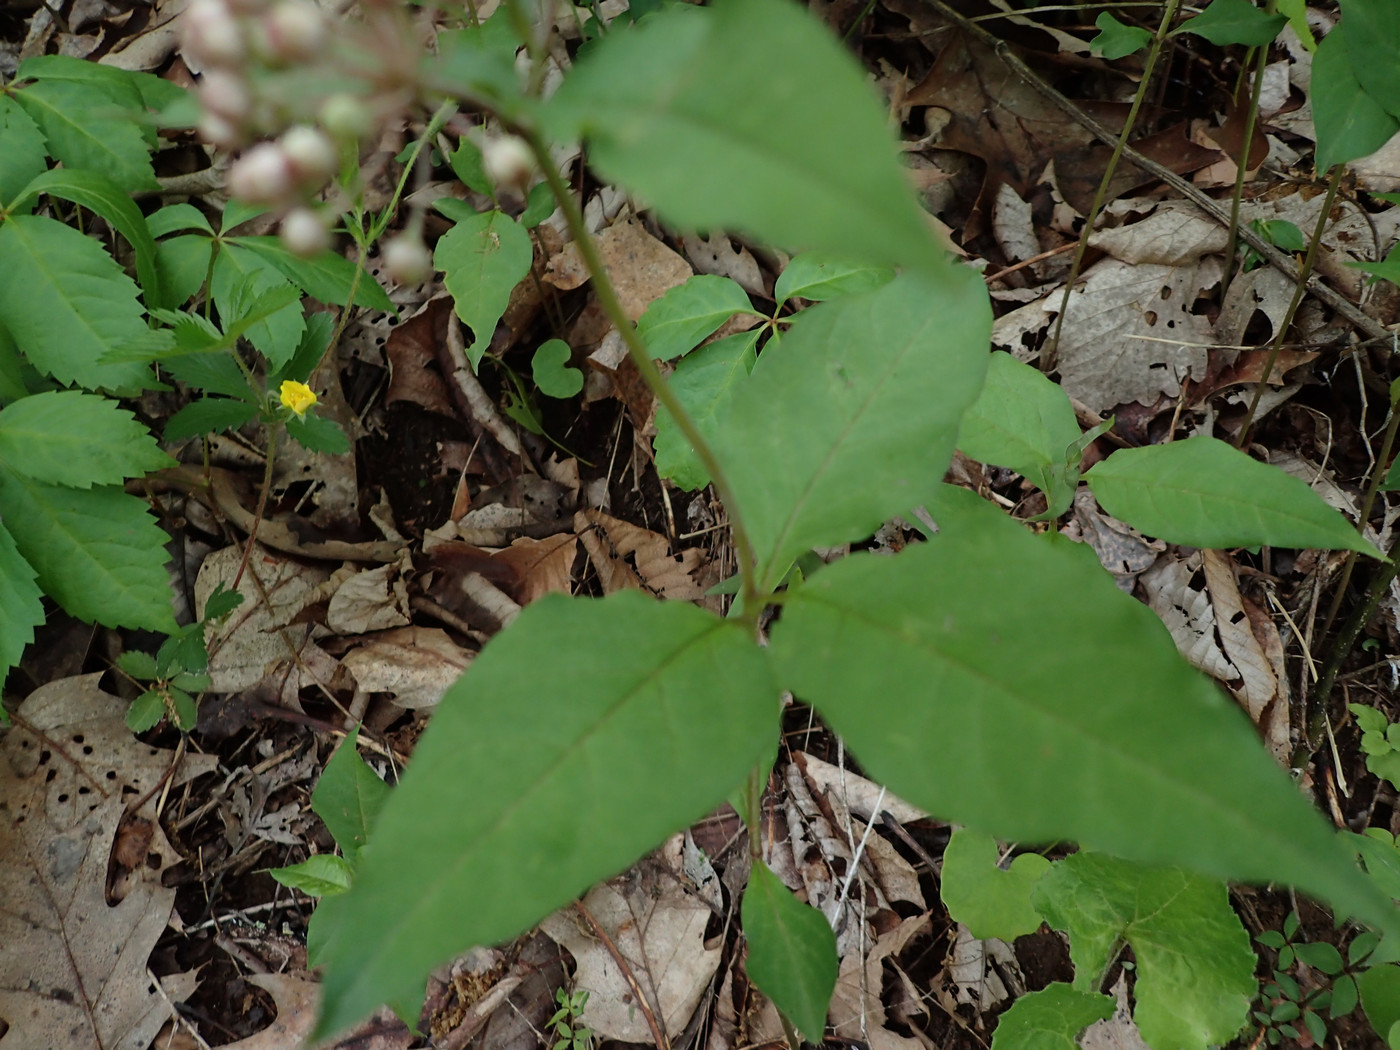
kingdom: Plantae
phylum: Tracheophyta
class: Magnoliopsida
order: Gentianales
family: Apocynaceae
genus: Asclepias
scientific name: Asclepias quadrifolia
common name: Whorled milkweed
